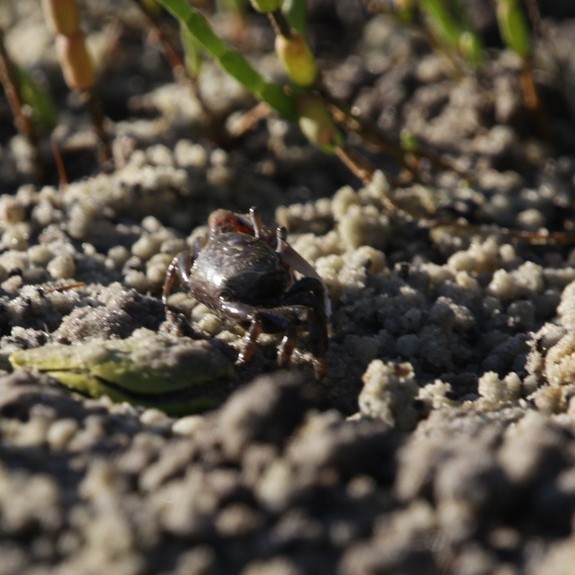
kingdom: Animalia
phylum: Arthropoda
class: Malacostraca
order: Decapoda
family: Ocypodidae
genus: Leptuca
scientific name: Leptuca pugilator
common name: Atlantic sand fiddler crab
